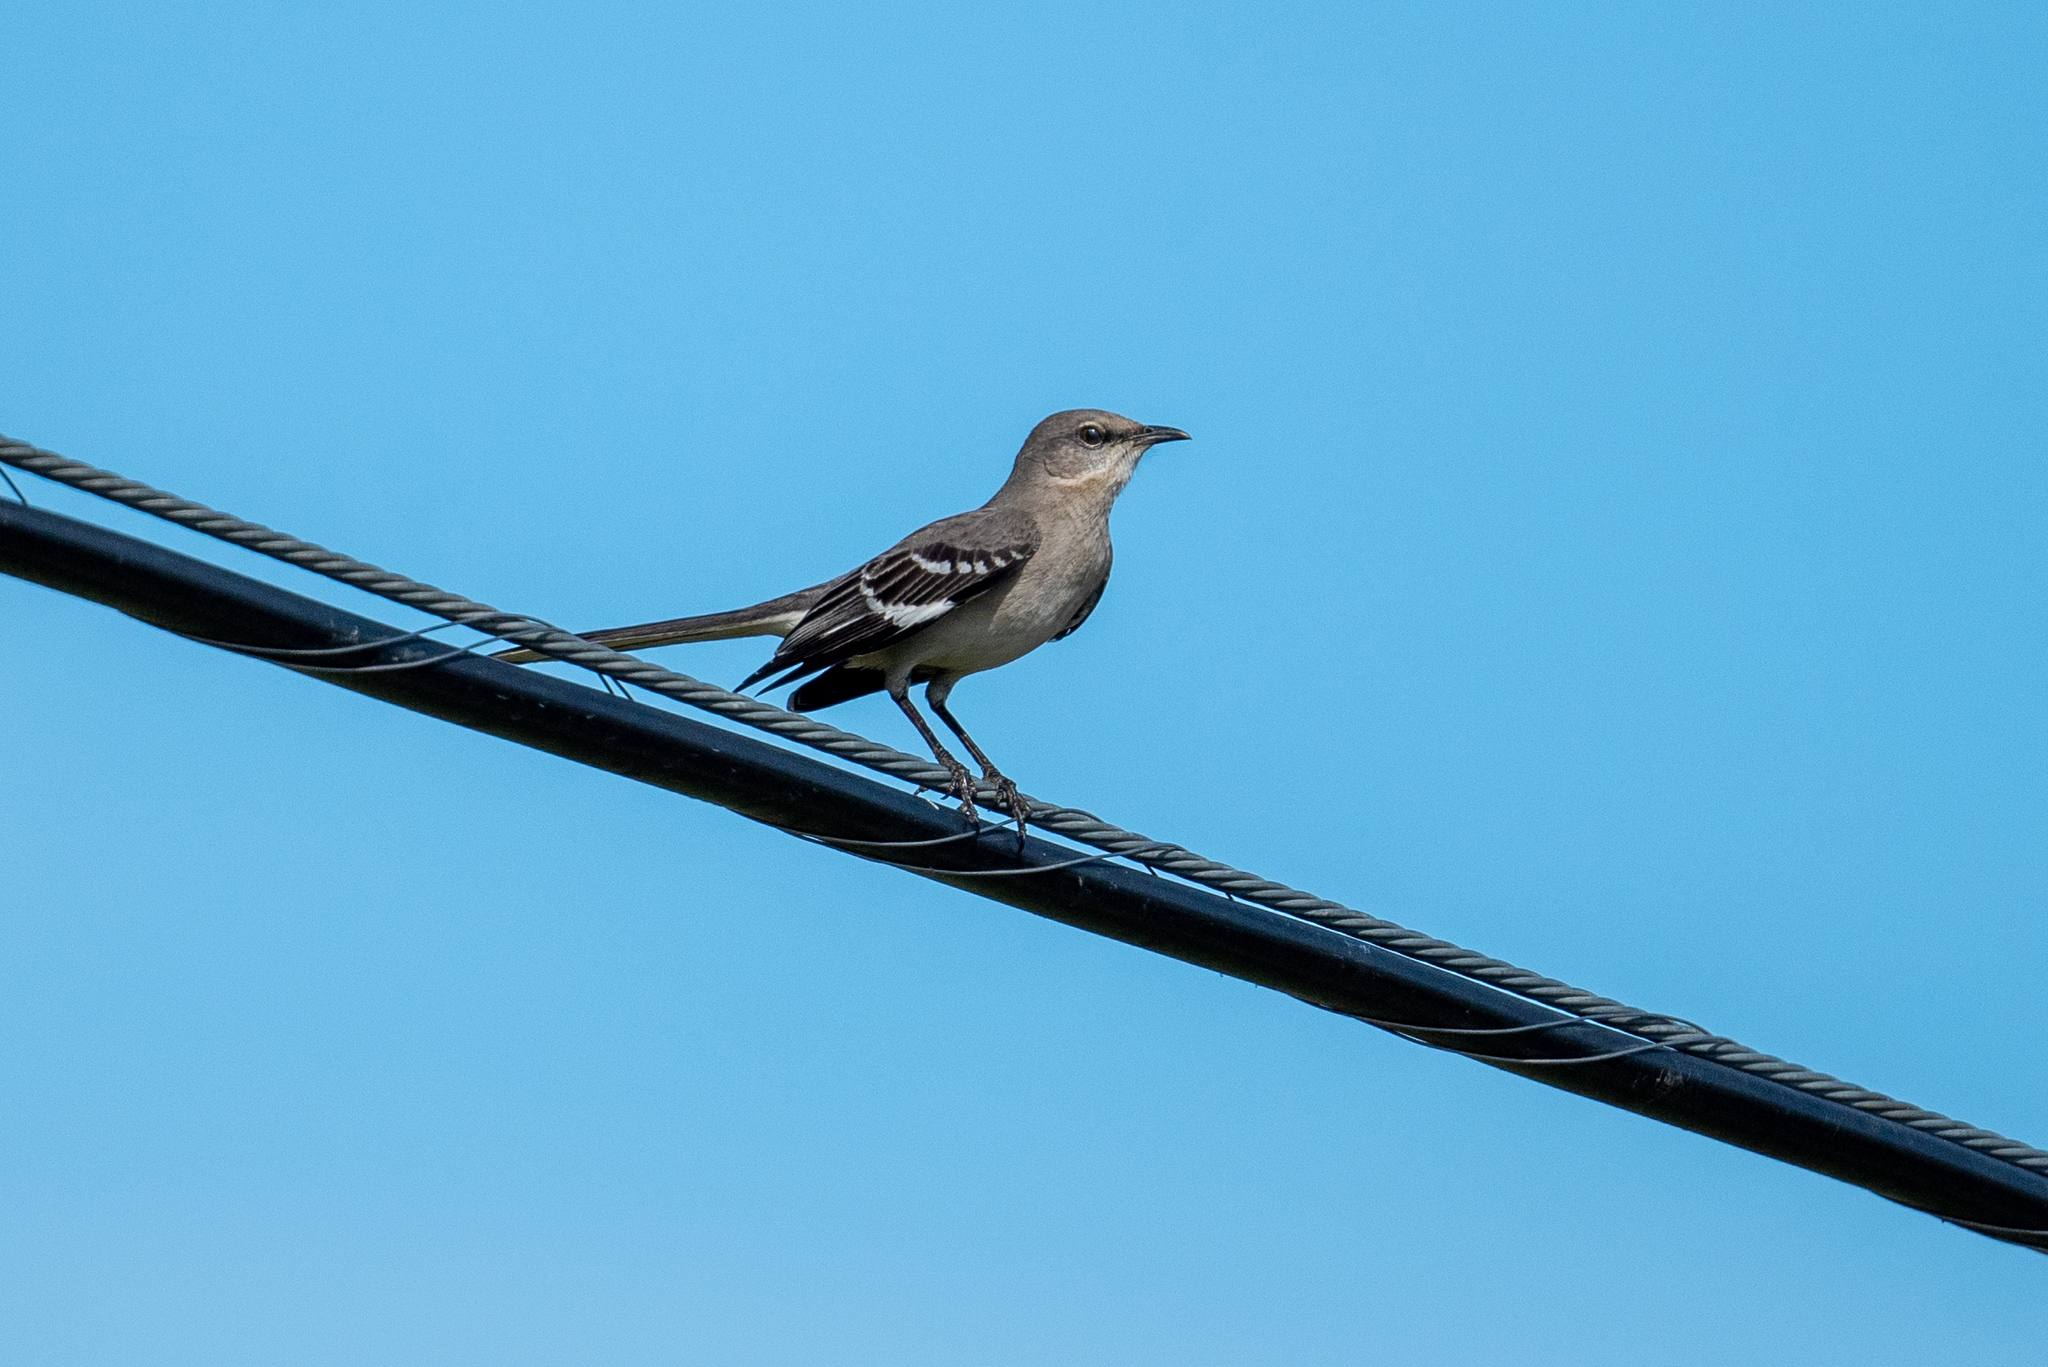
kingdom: Animalia
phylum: Chordata
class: Aves
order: Passeriformes
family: Mimidae
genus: Mimus
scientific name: Mimus polyglottos
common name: Northern mockingbird
